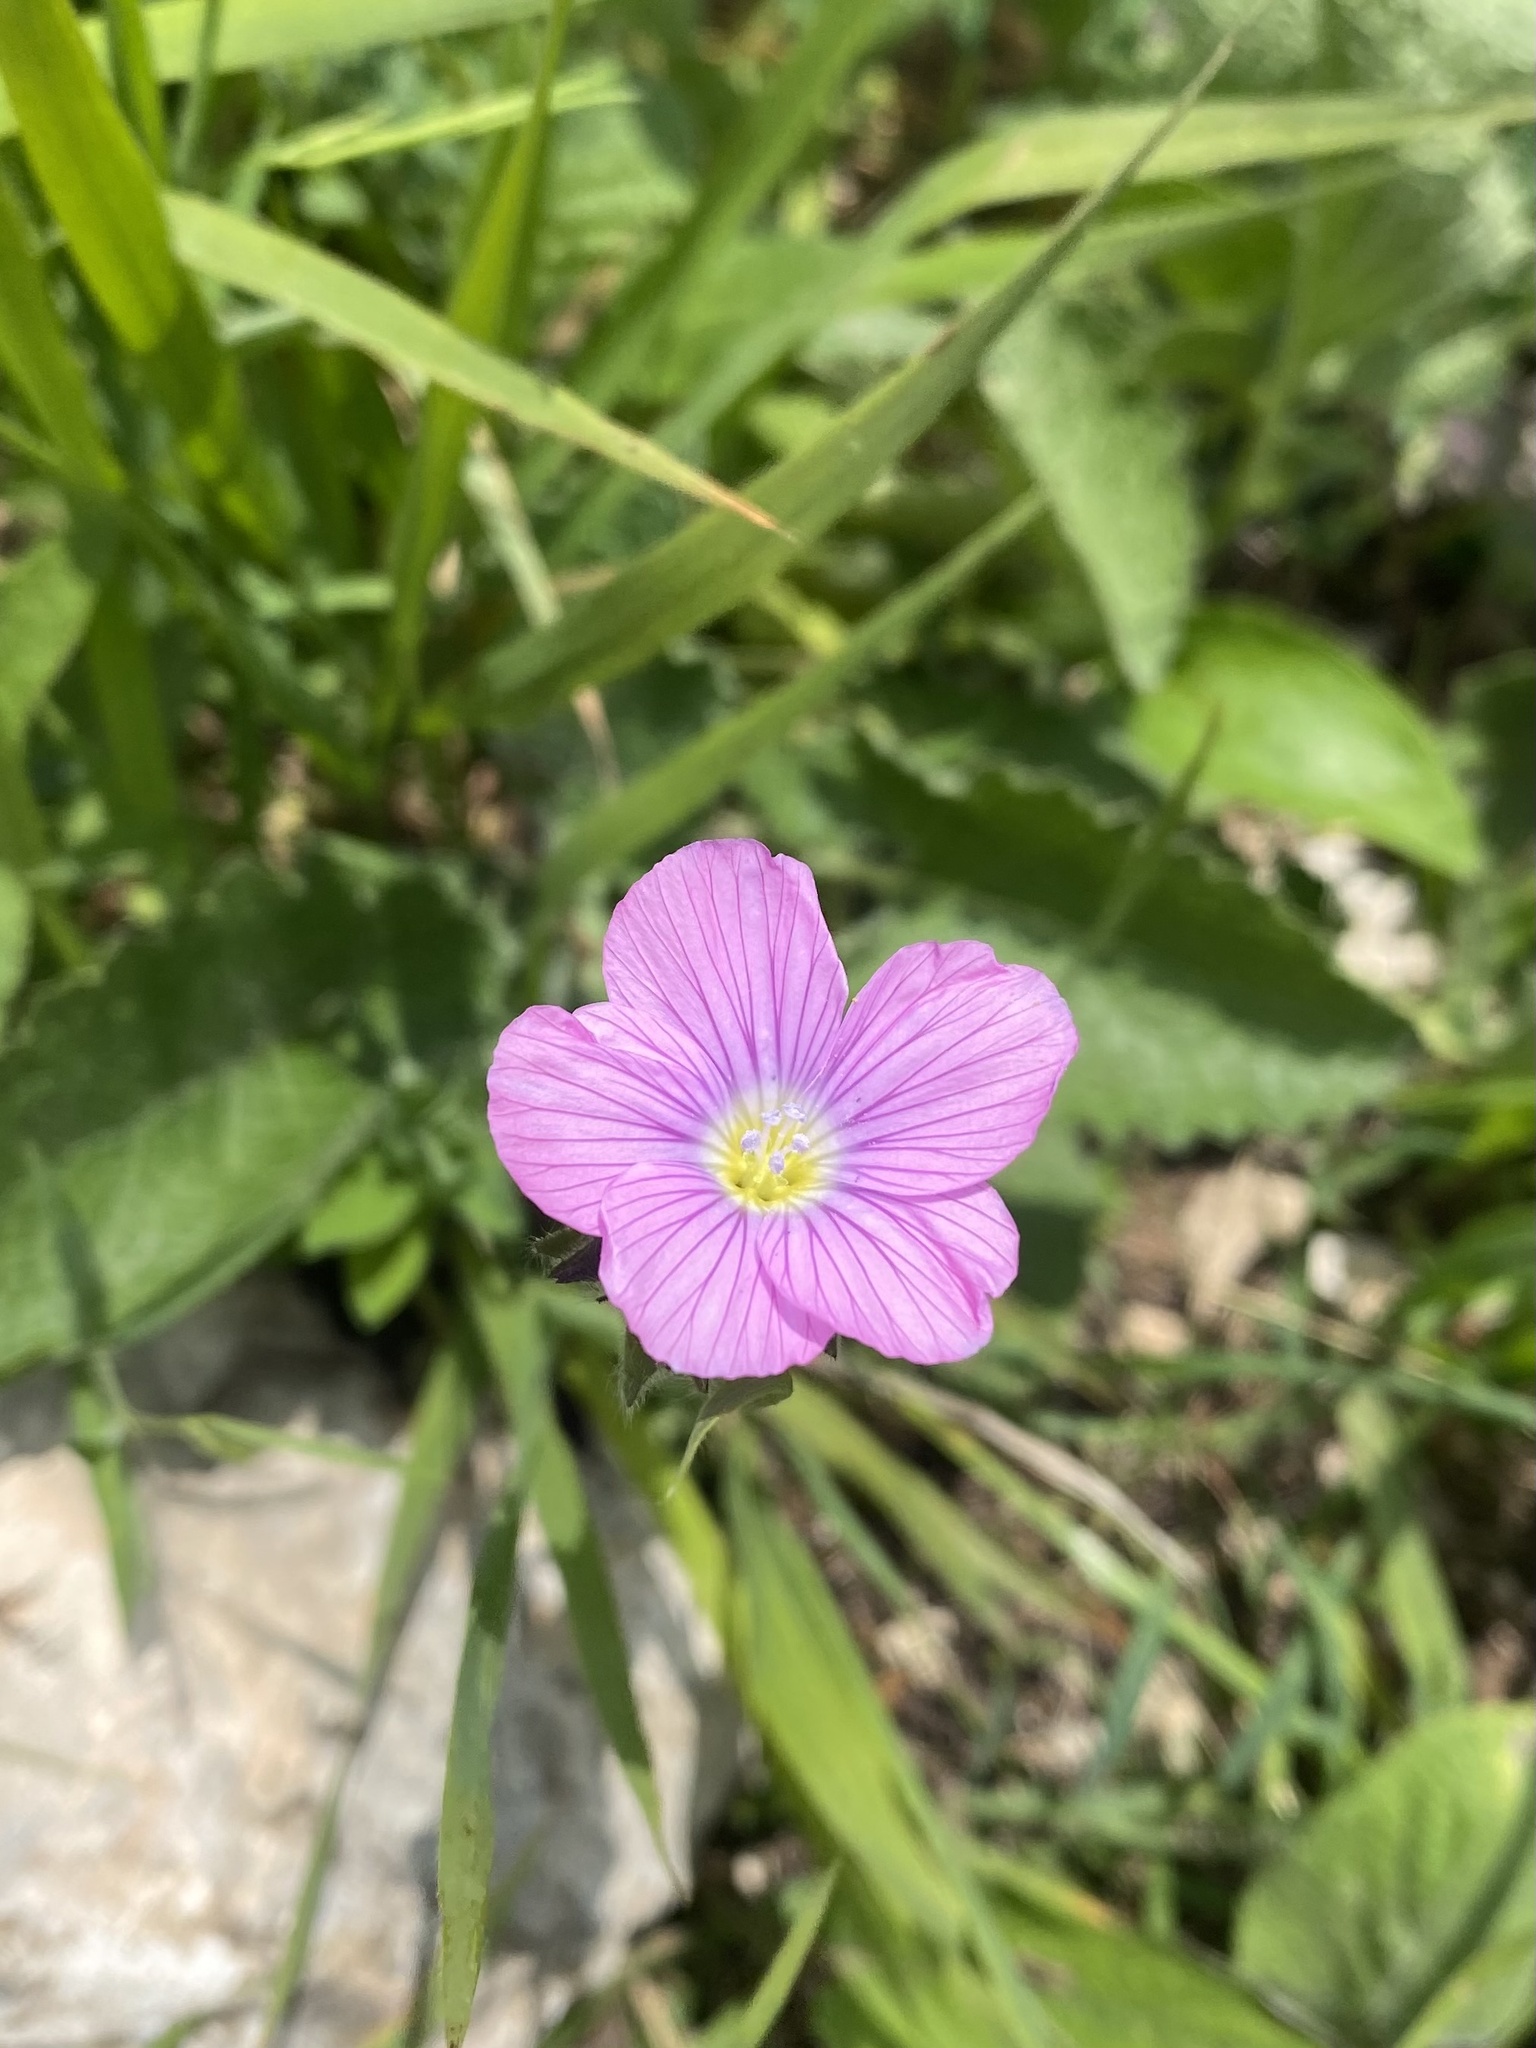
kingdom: Plantae
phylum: Tracheophyta
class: Magnoliopsida
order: Malpighiales
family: Linaceae
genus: Linum
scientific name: Linum hypericifolium
